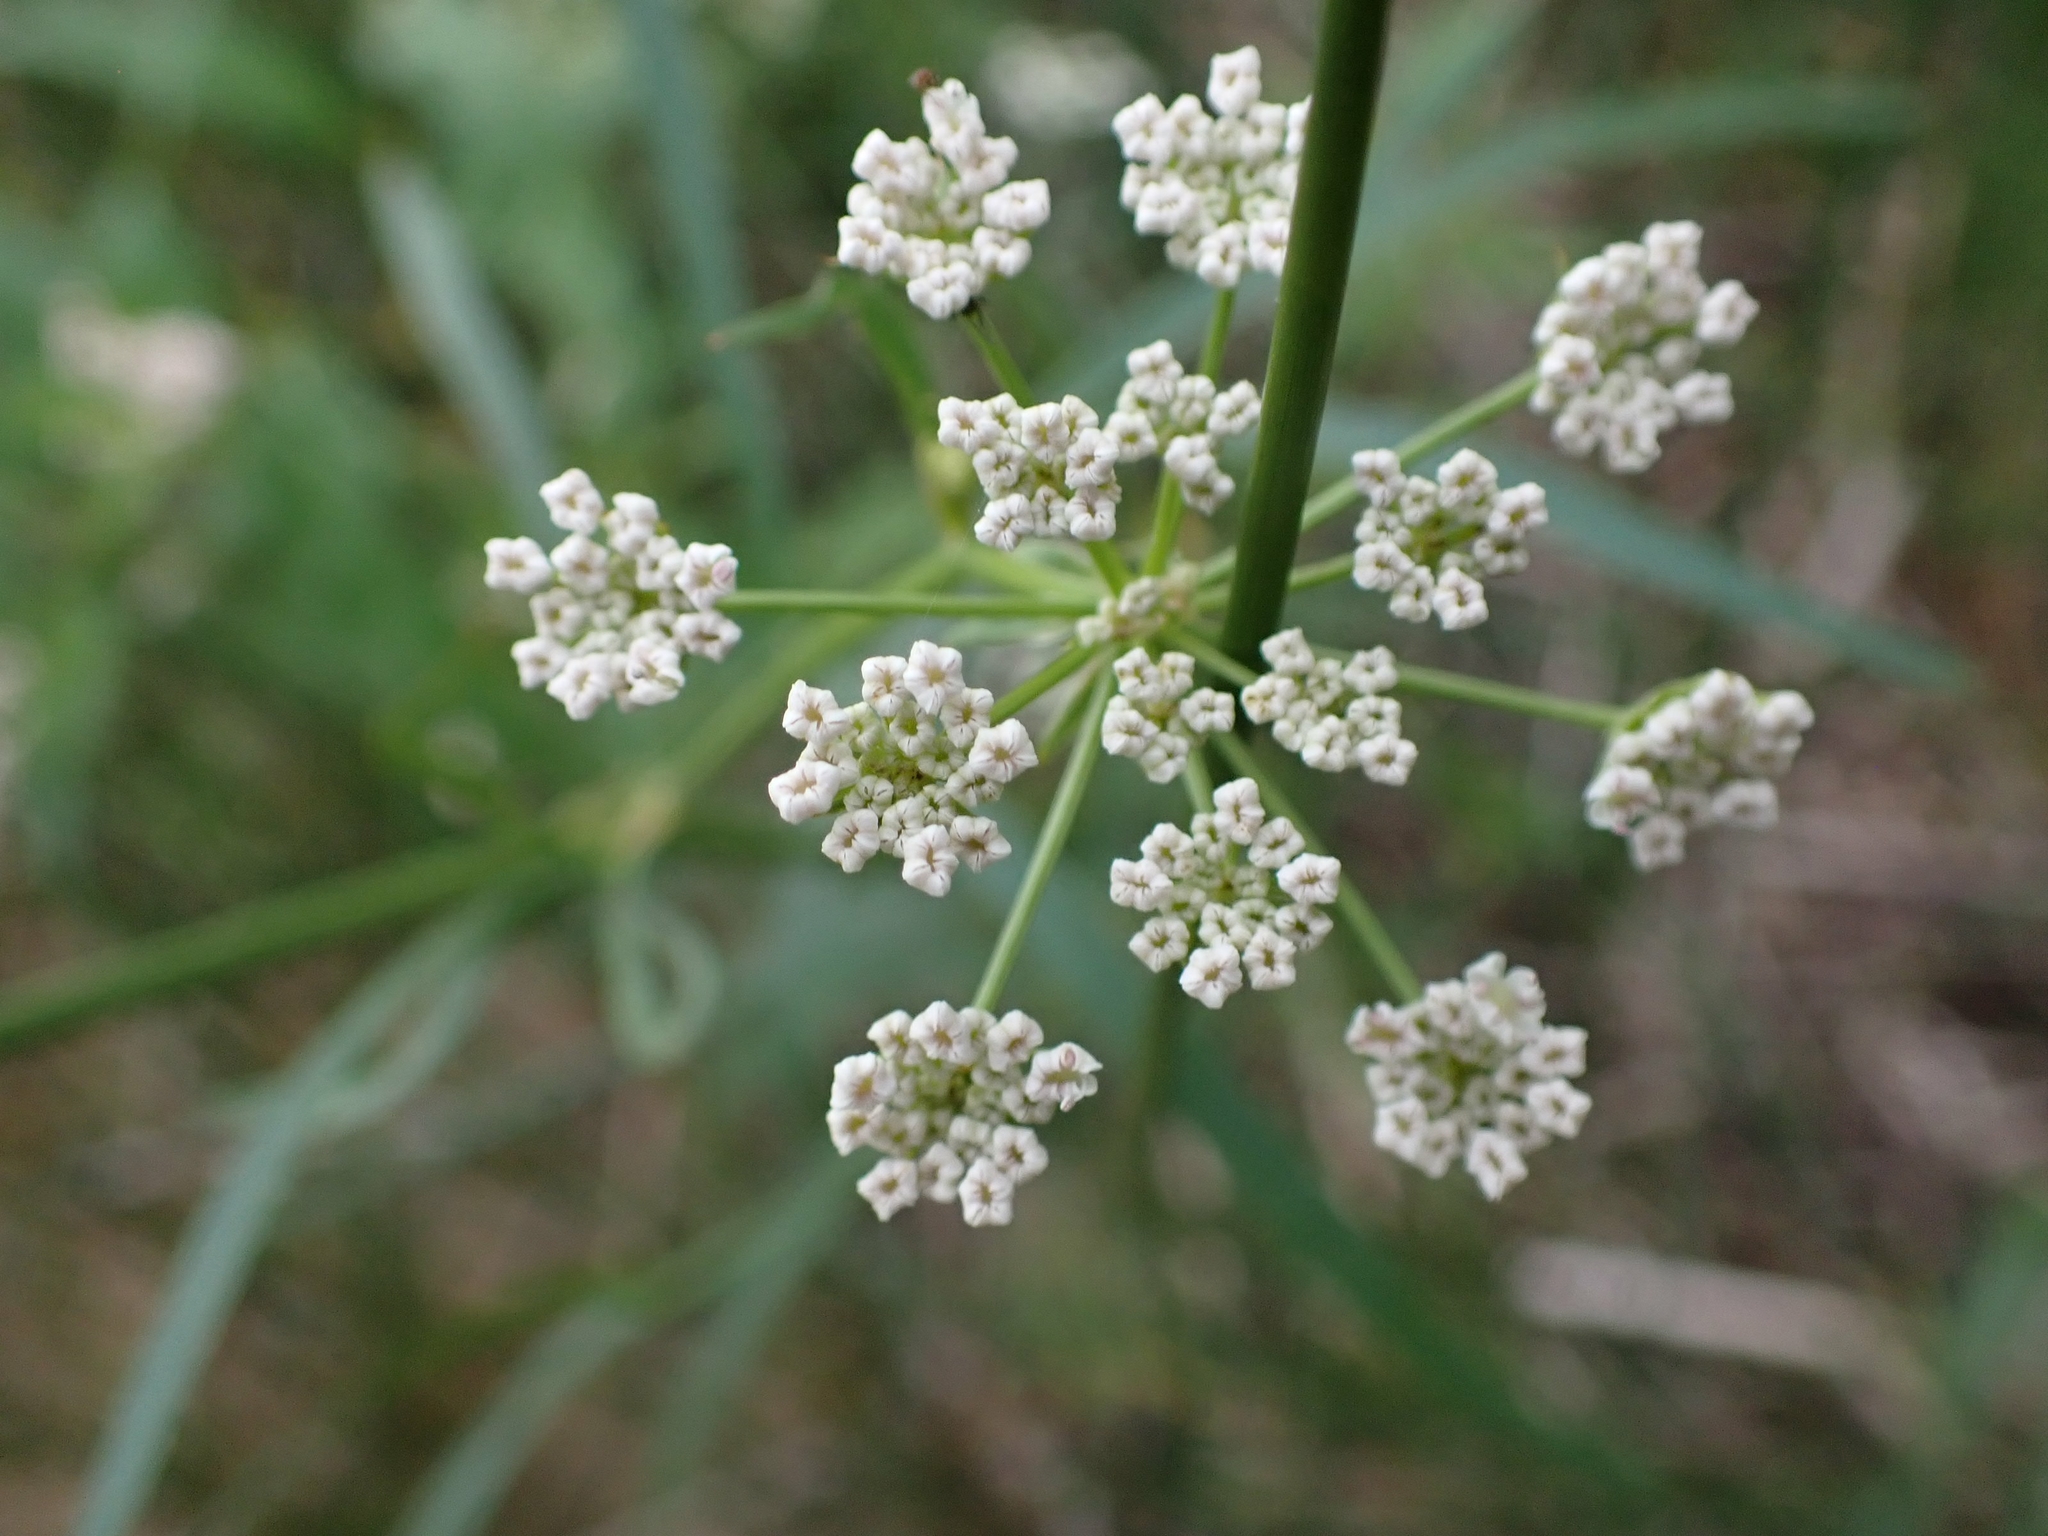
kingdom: Plantae
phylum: Tracheophyta
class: Magnoliopsida
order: Apiales
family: Apiaceae
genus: Sium
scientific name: Sium suave
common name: Hemlock water-parsnip
